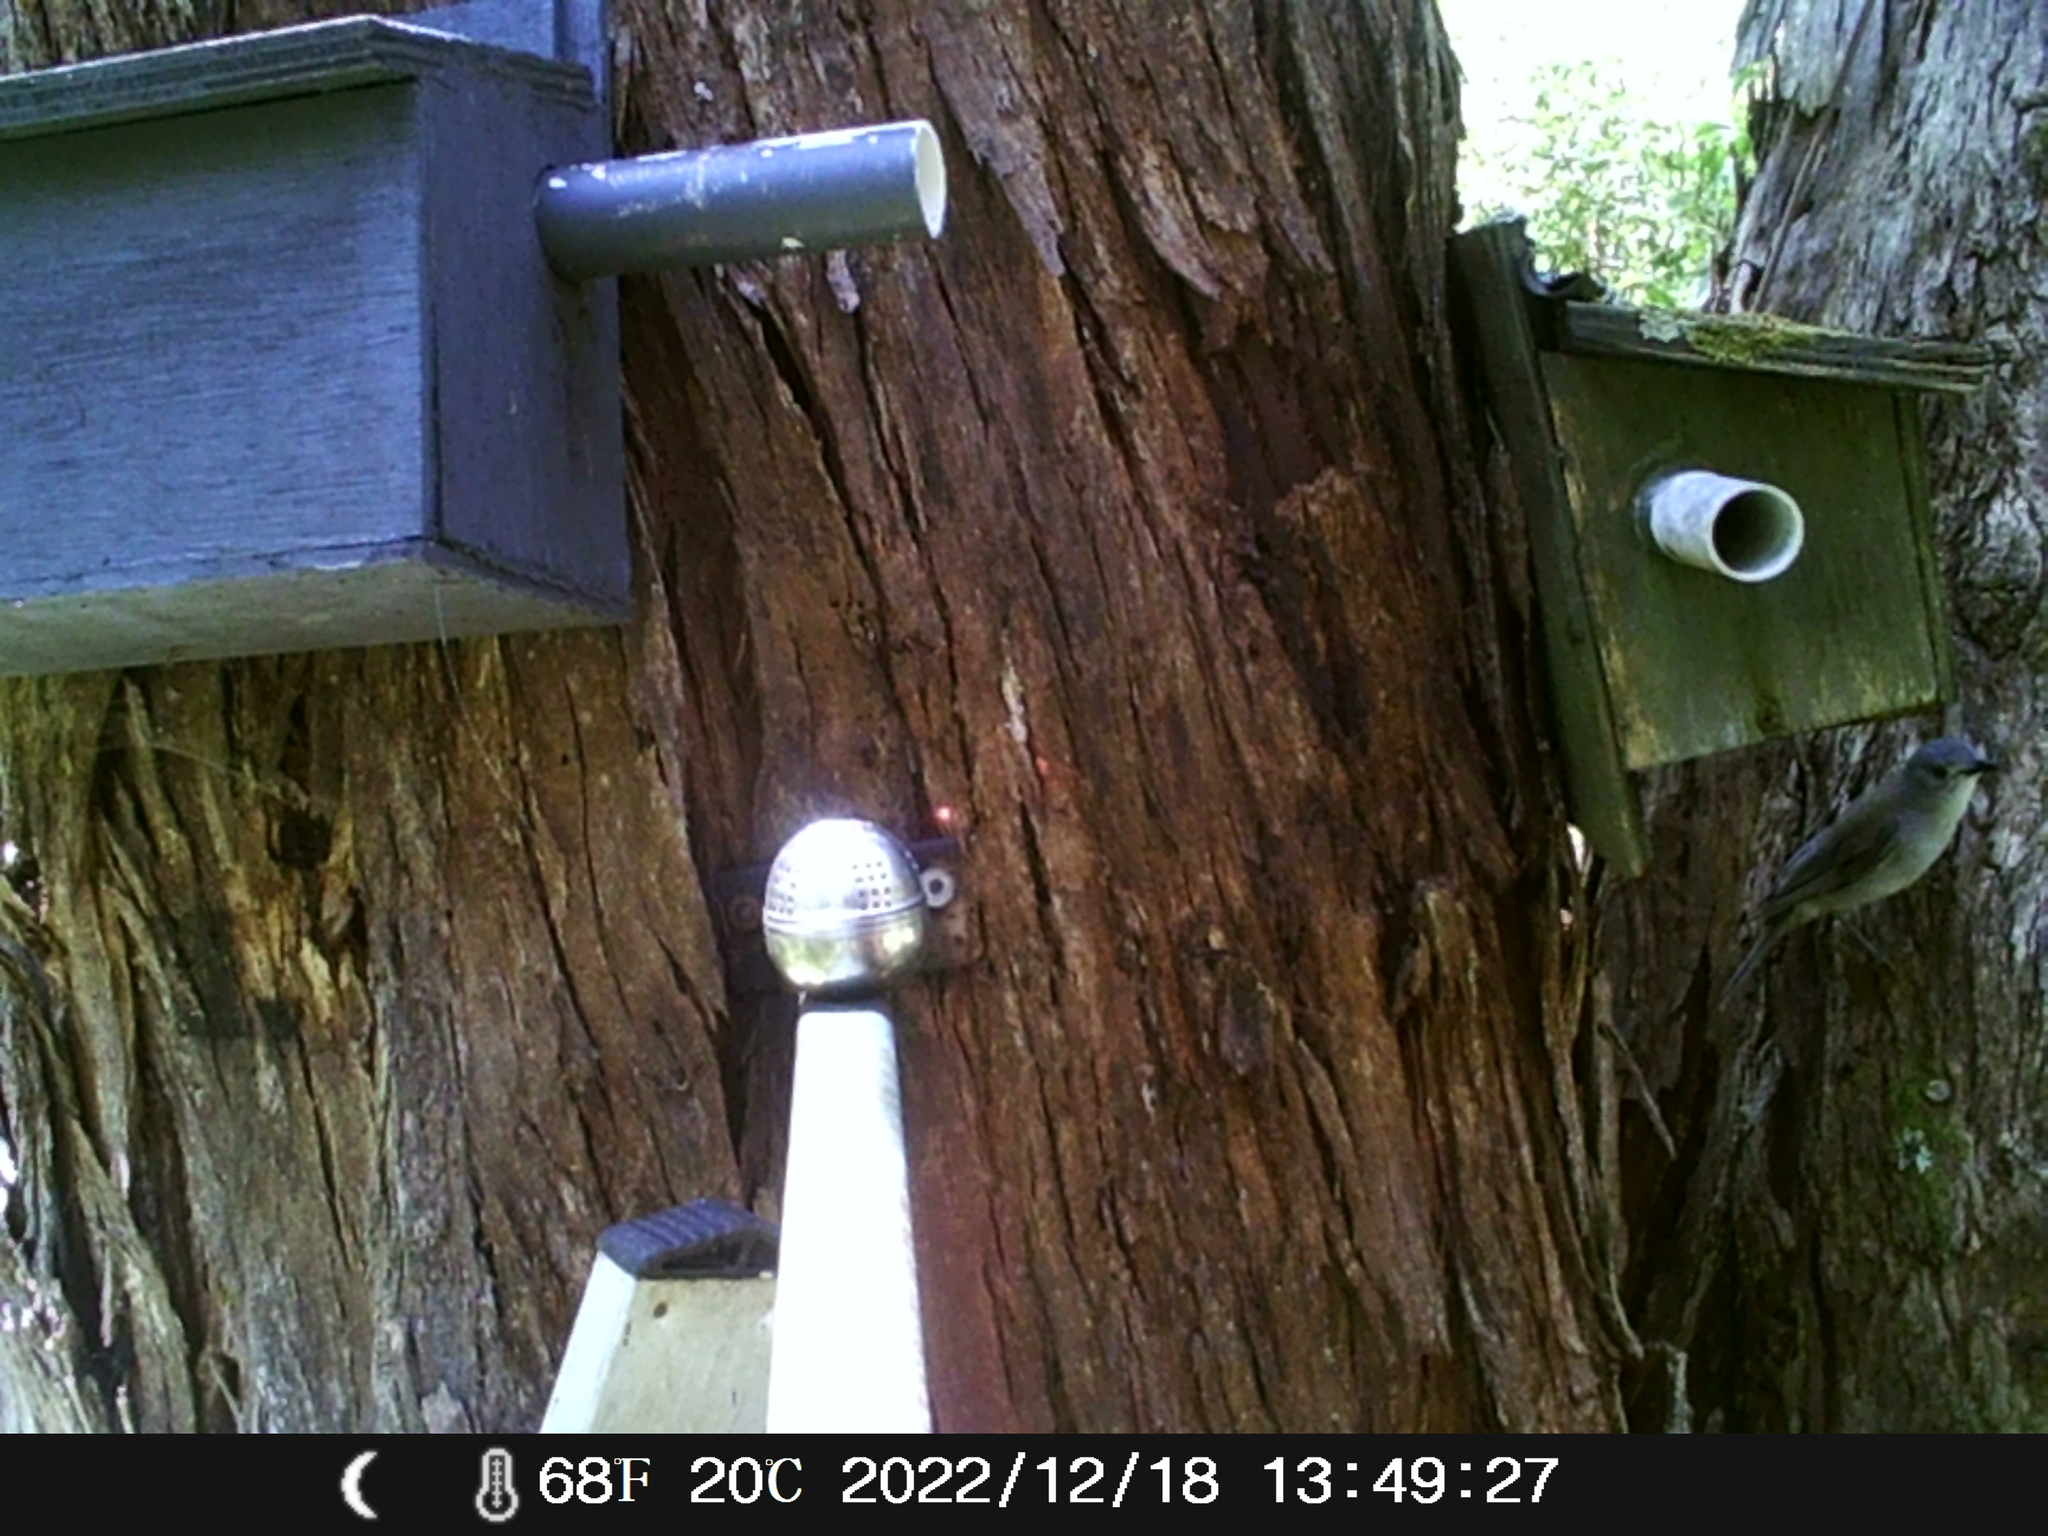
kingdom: Animalia
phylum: Chordata
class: Aves
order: Passeriformes
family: Pachycephalidae
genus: Colluricincla
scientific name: Colluricincla harmonica
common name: Grey shrikethrush
